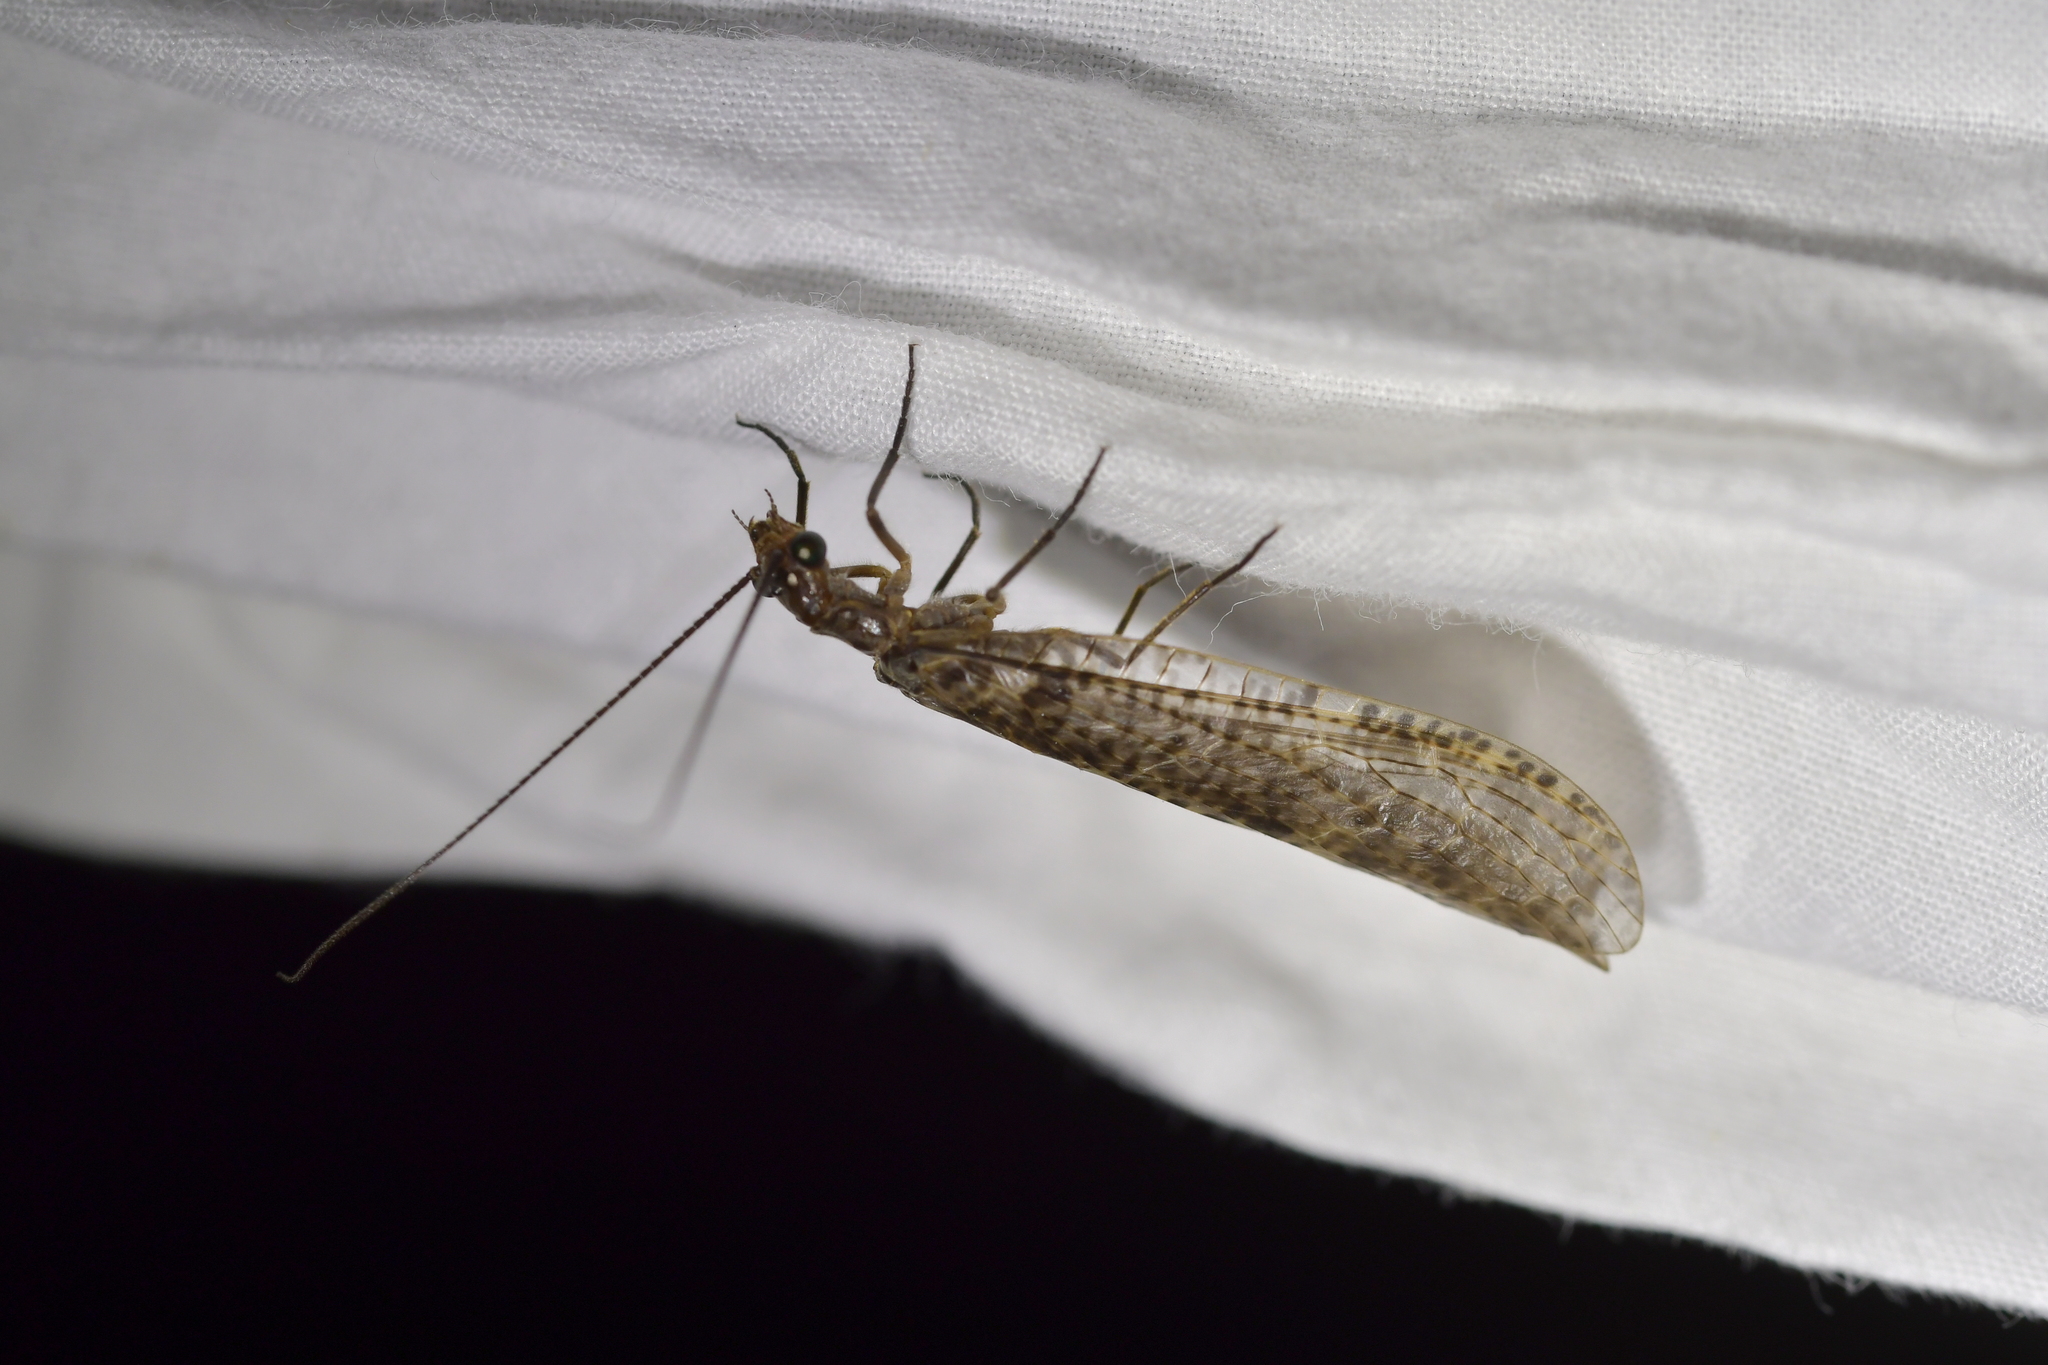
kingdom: Animalia
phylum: Arthropoda
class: Insecta
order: Megaloptera
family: Corydalidae
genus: Archichauliodes
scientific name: Archichauliodes diversus
